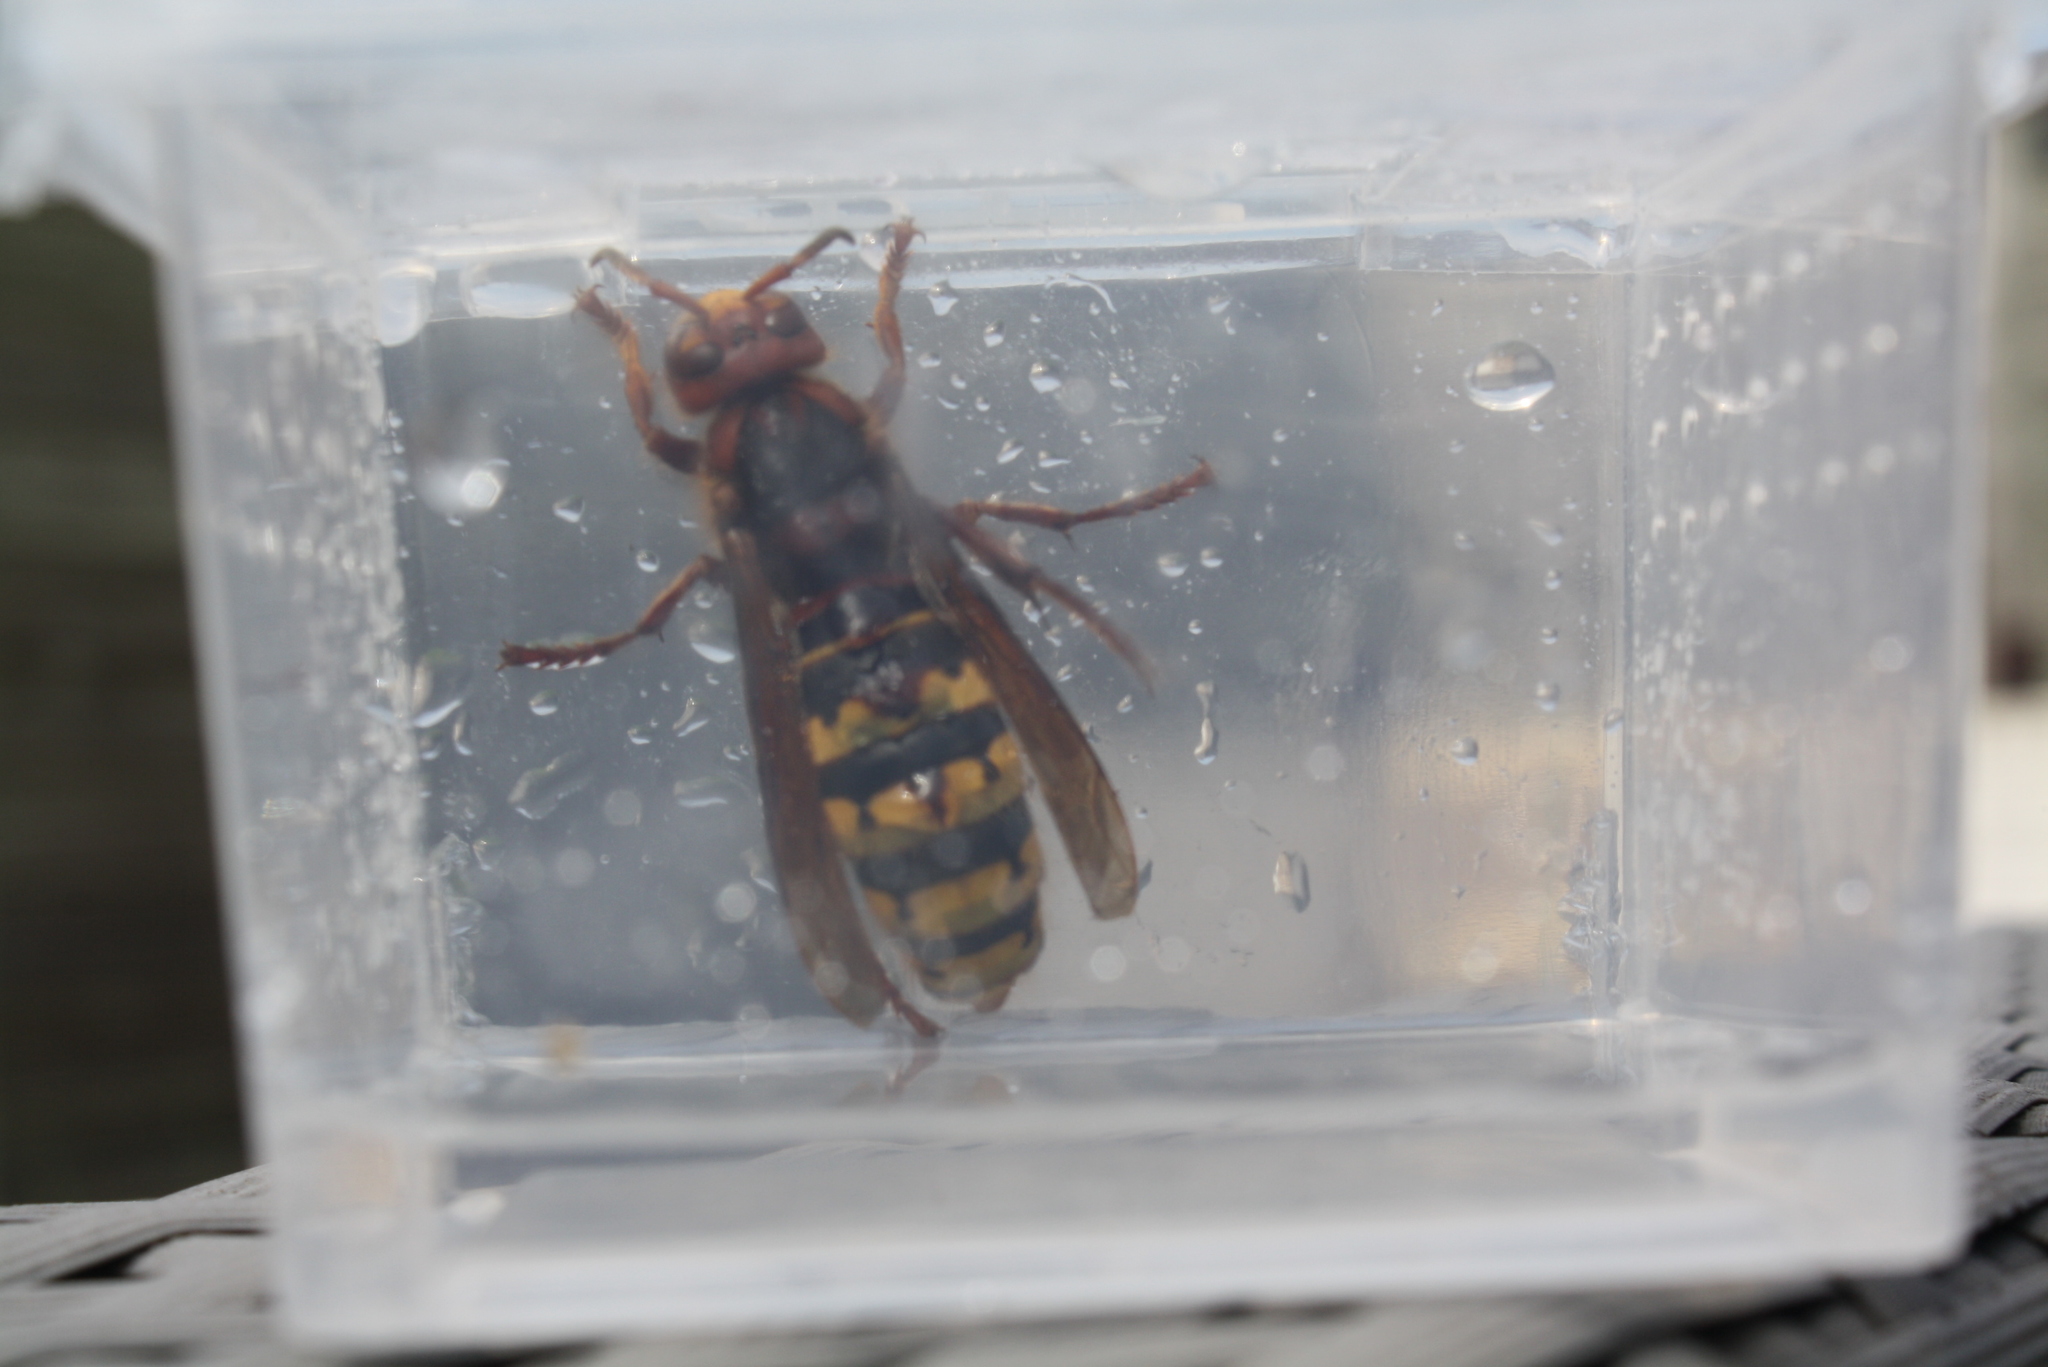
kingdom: Animalia
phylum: Arthropoda
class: Insecta
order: Hymenoptera
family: Vespidae
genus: Vespa
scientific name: Vespa crabro
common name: Hornet
